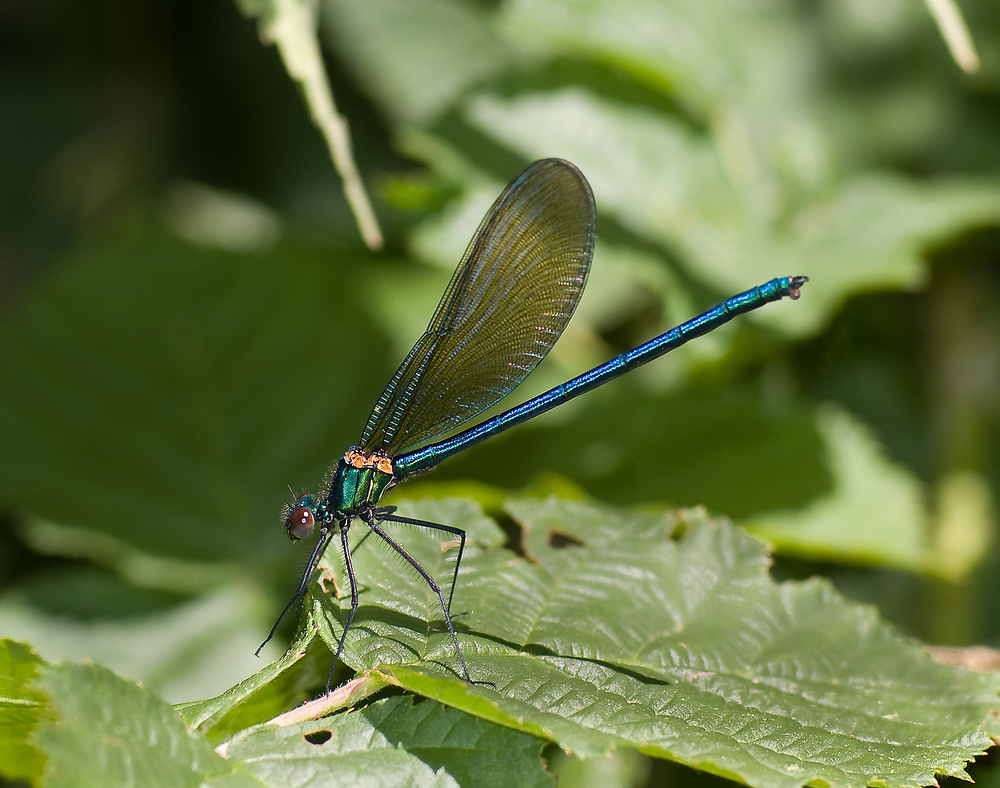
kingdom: Animalia
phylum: Arthropoda
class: Insecta
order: Odonata
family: Calopterygidae
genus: Calopteryx
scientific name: Calopteryx xanthostoma
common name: Western demoiselle
